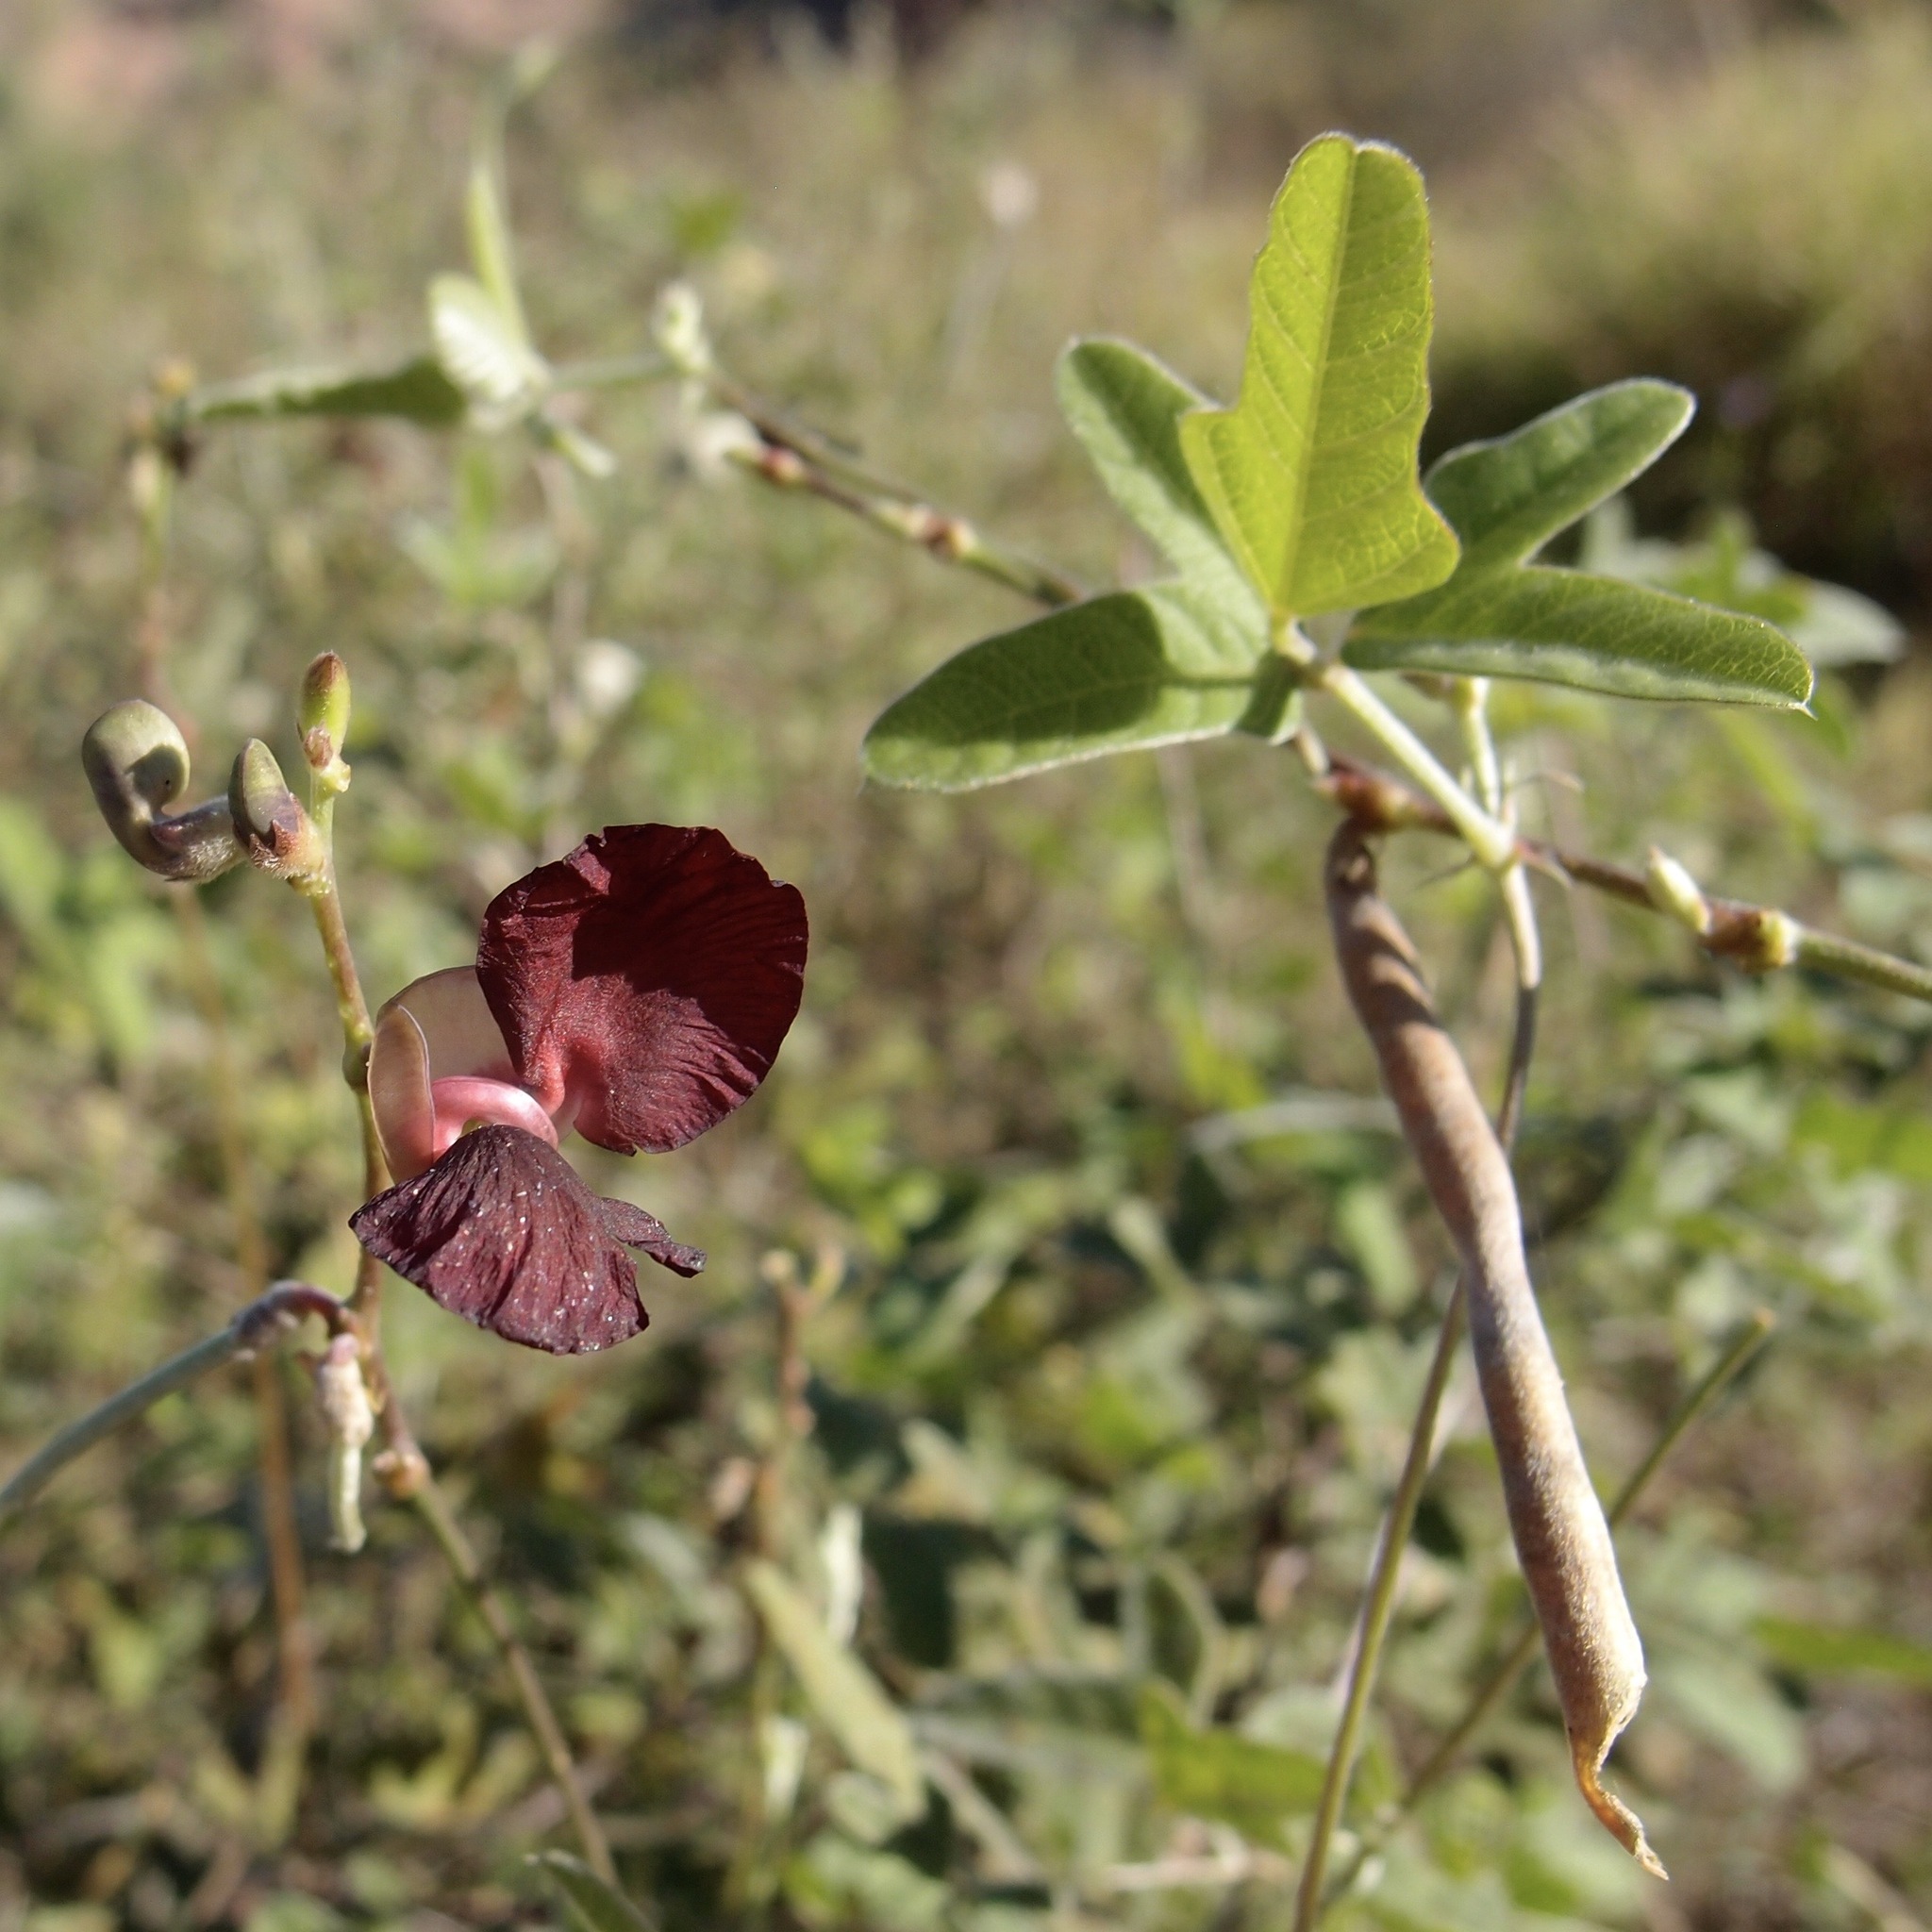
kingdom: Plantae
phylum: Tracheophyta
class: Magnoliopsida
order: Fabales
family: Fabaceae
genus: Macroptilium
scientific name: Macroptilium atropurpureum
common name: Purple bushbean
